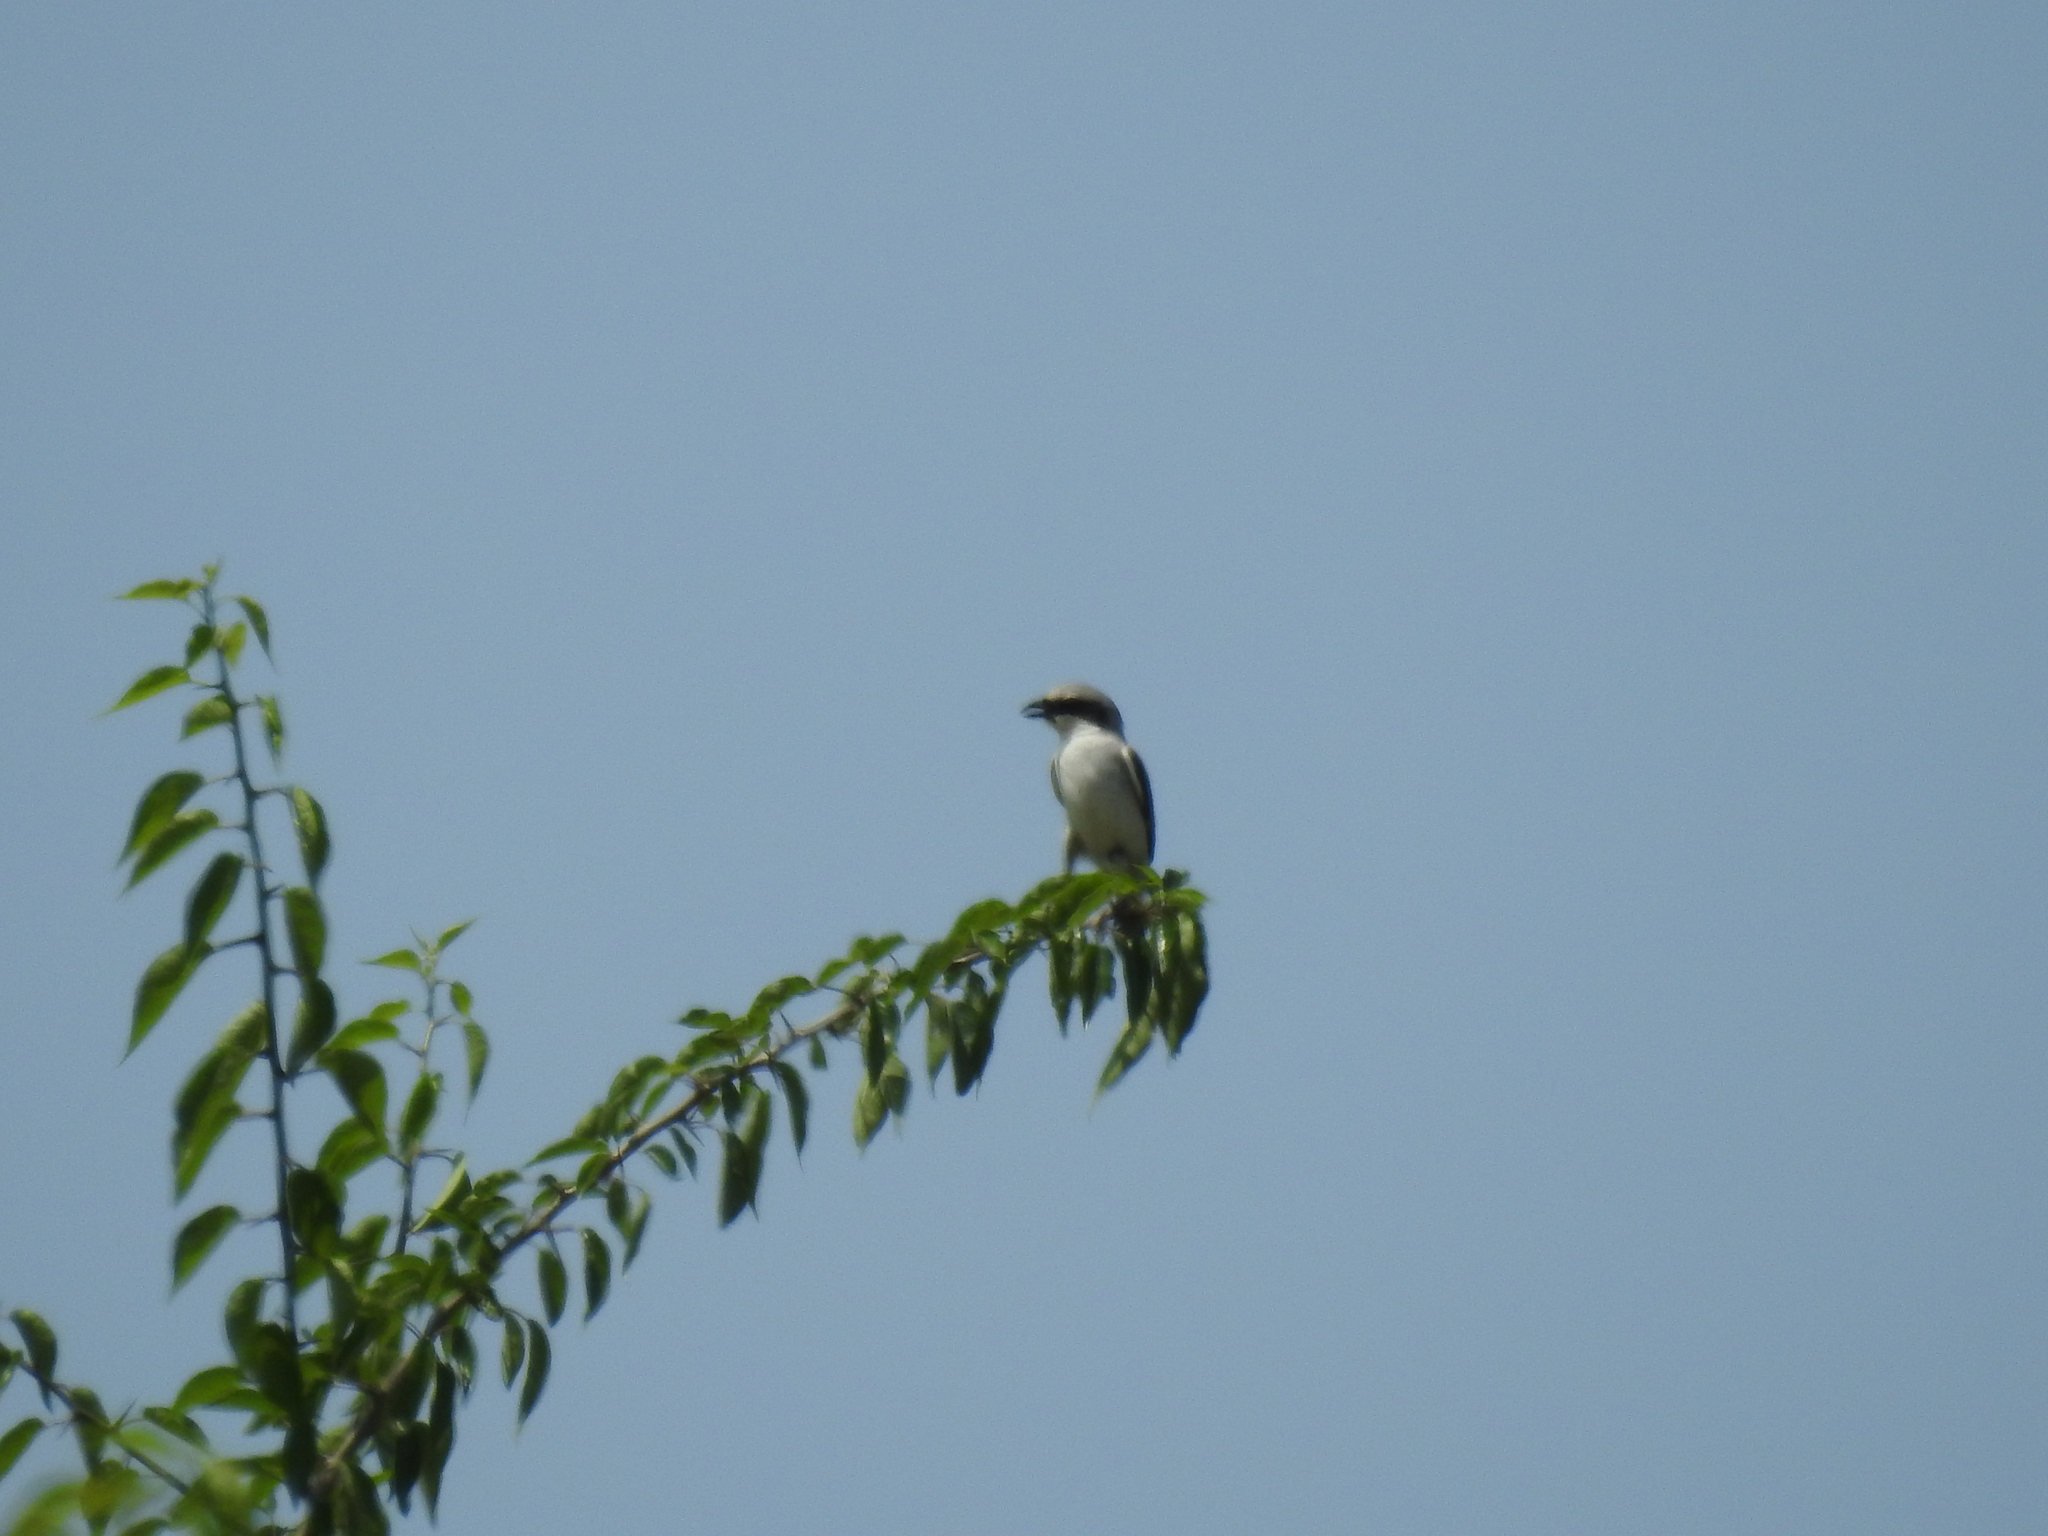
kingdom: Animalia
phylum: Chordata
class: Aves
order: Passeriformes
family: Laniidae
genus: Lanius
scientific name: Lanius ludovicianus
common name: Loggerhead shrike
